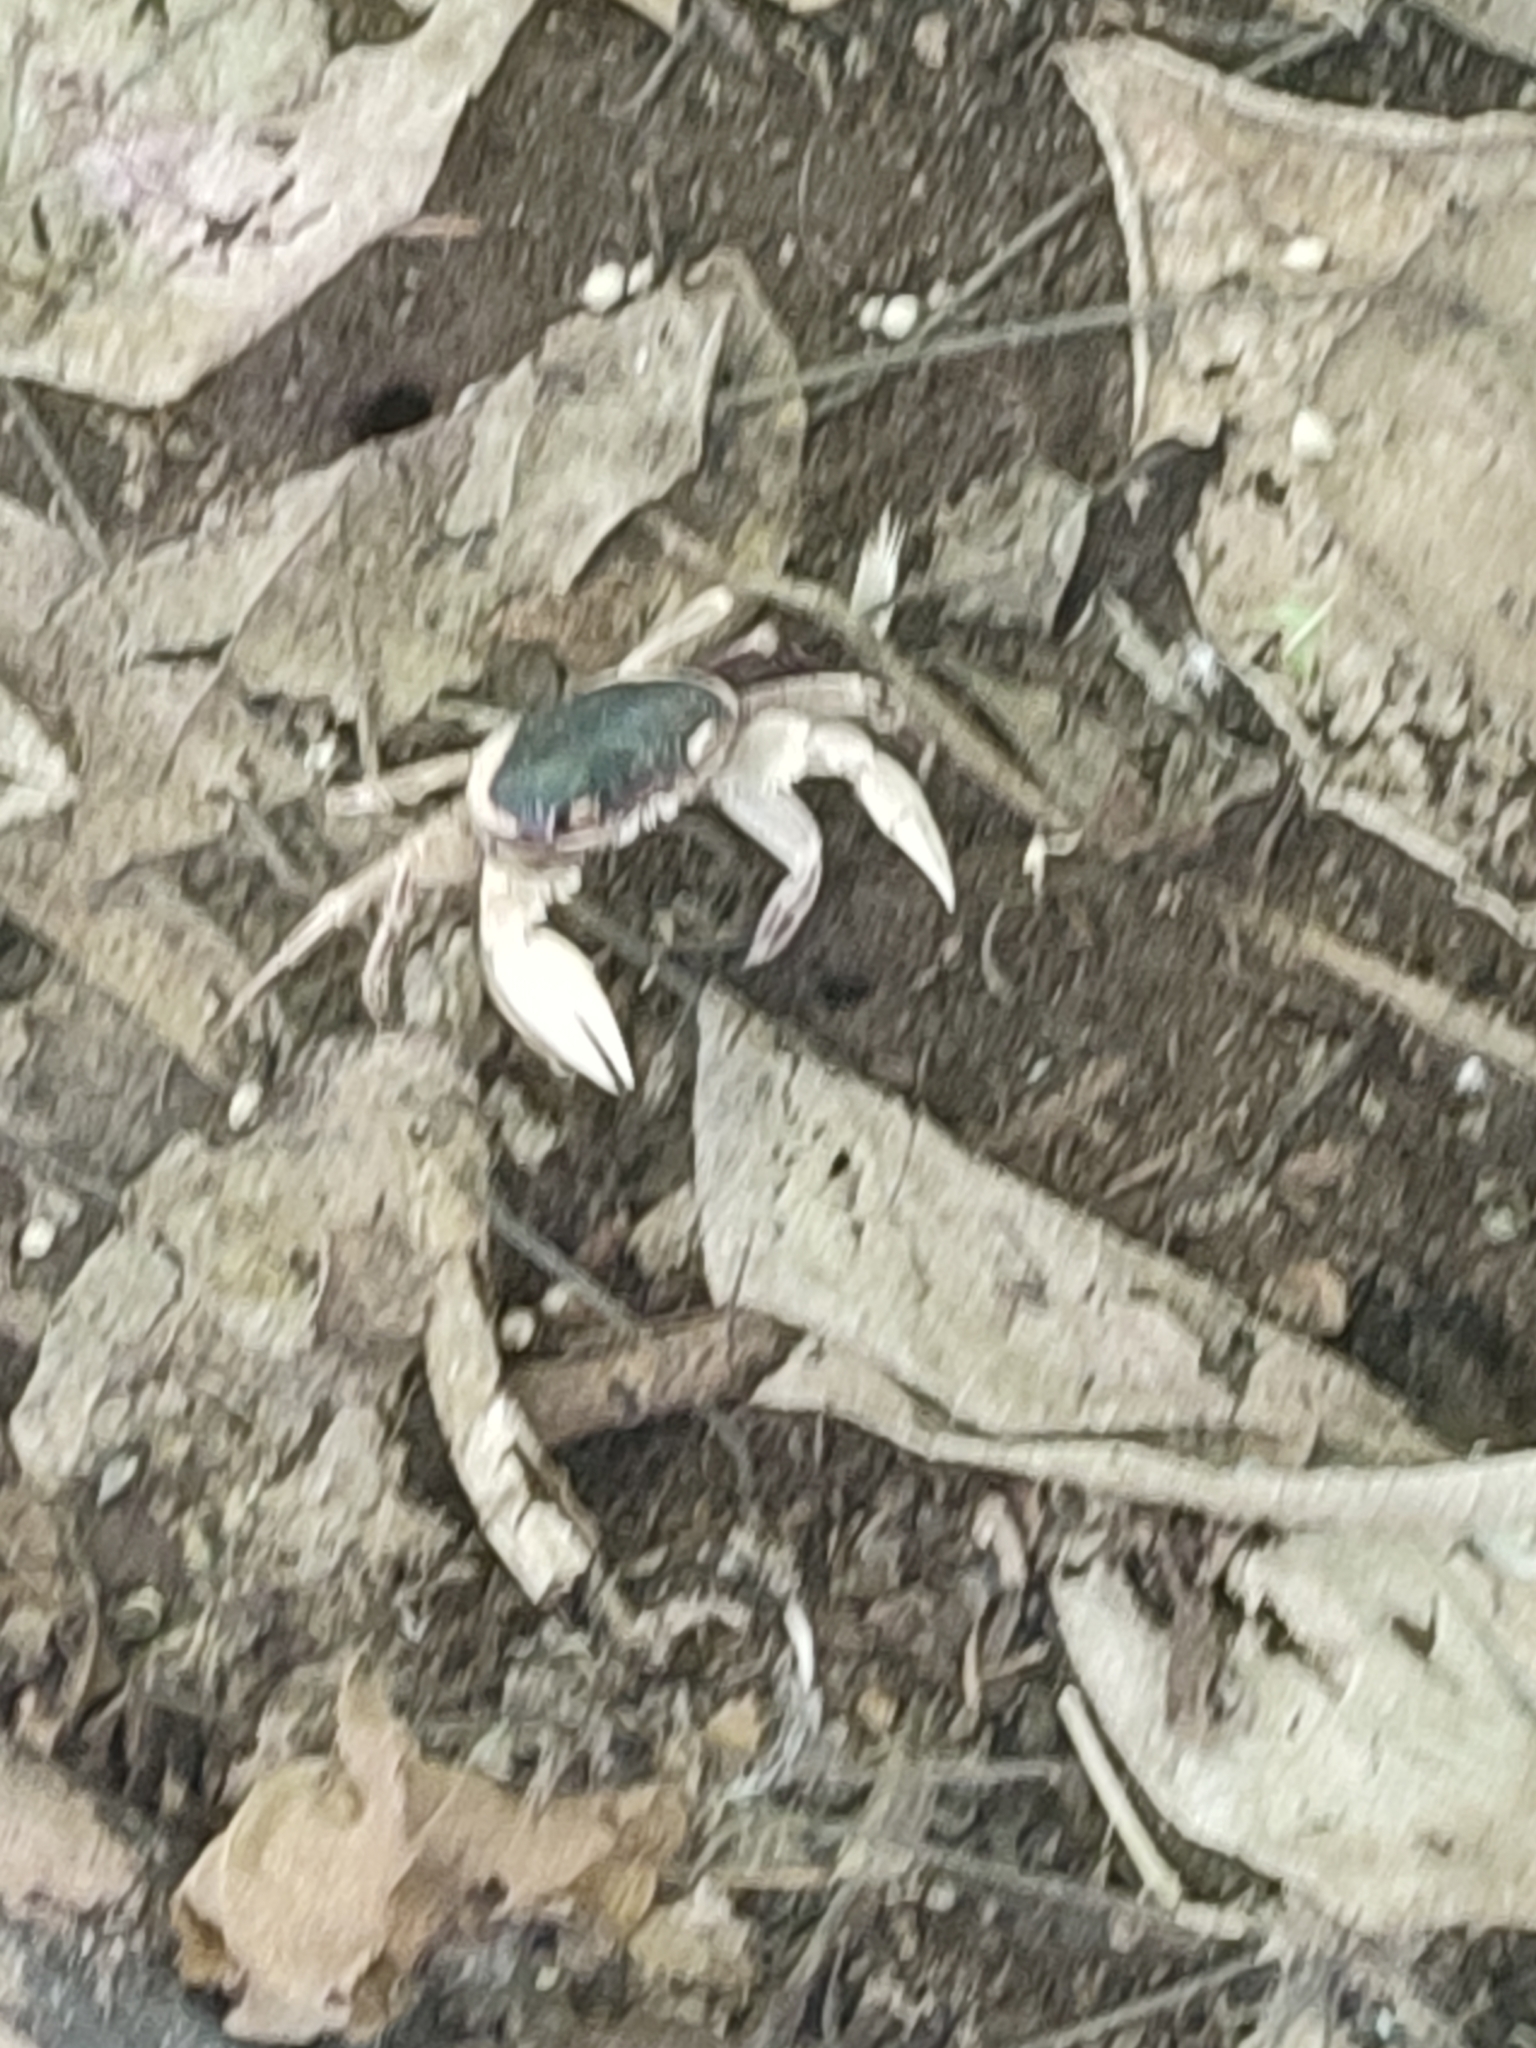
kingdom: Animalia
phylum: Arthropoda
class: Malacostraca
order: Decapoda
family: Grapsidae
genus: Geograpsus
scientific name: Geograpsus grayi
